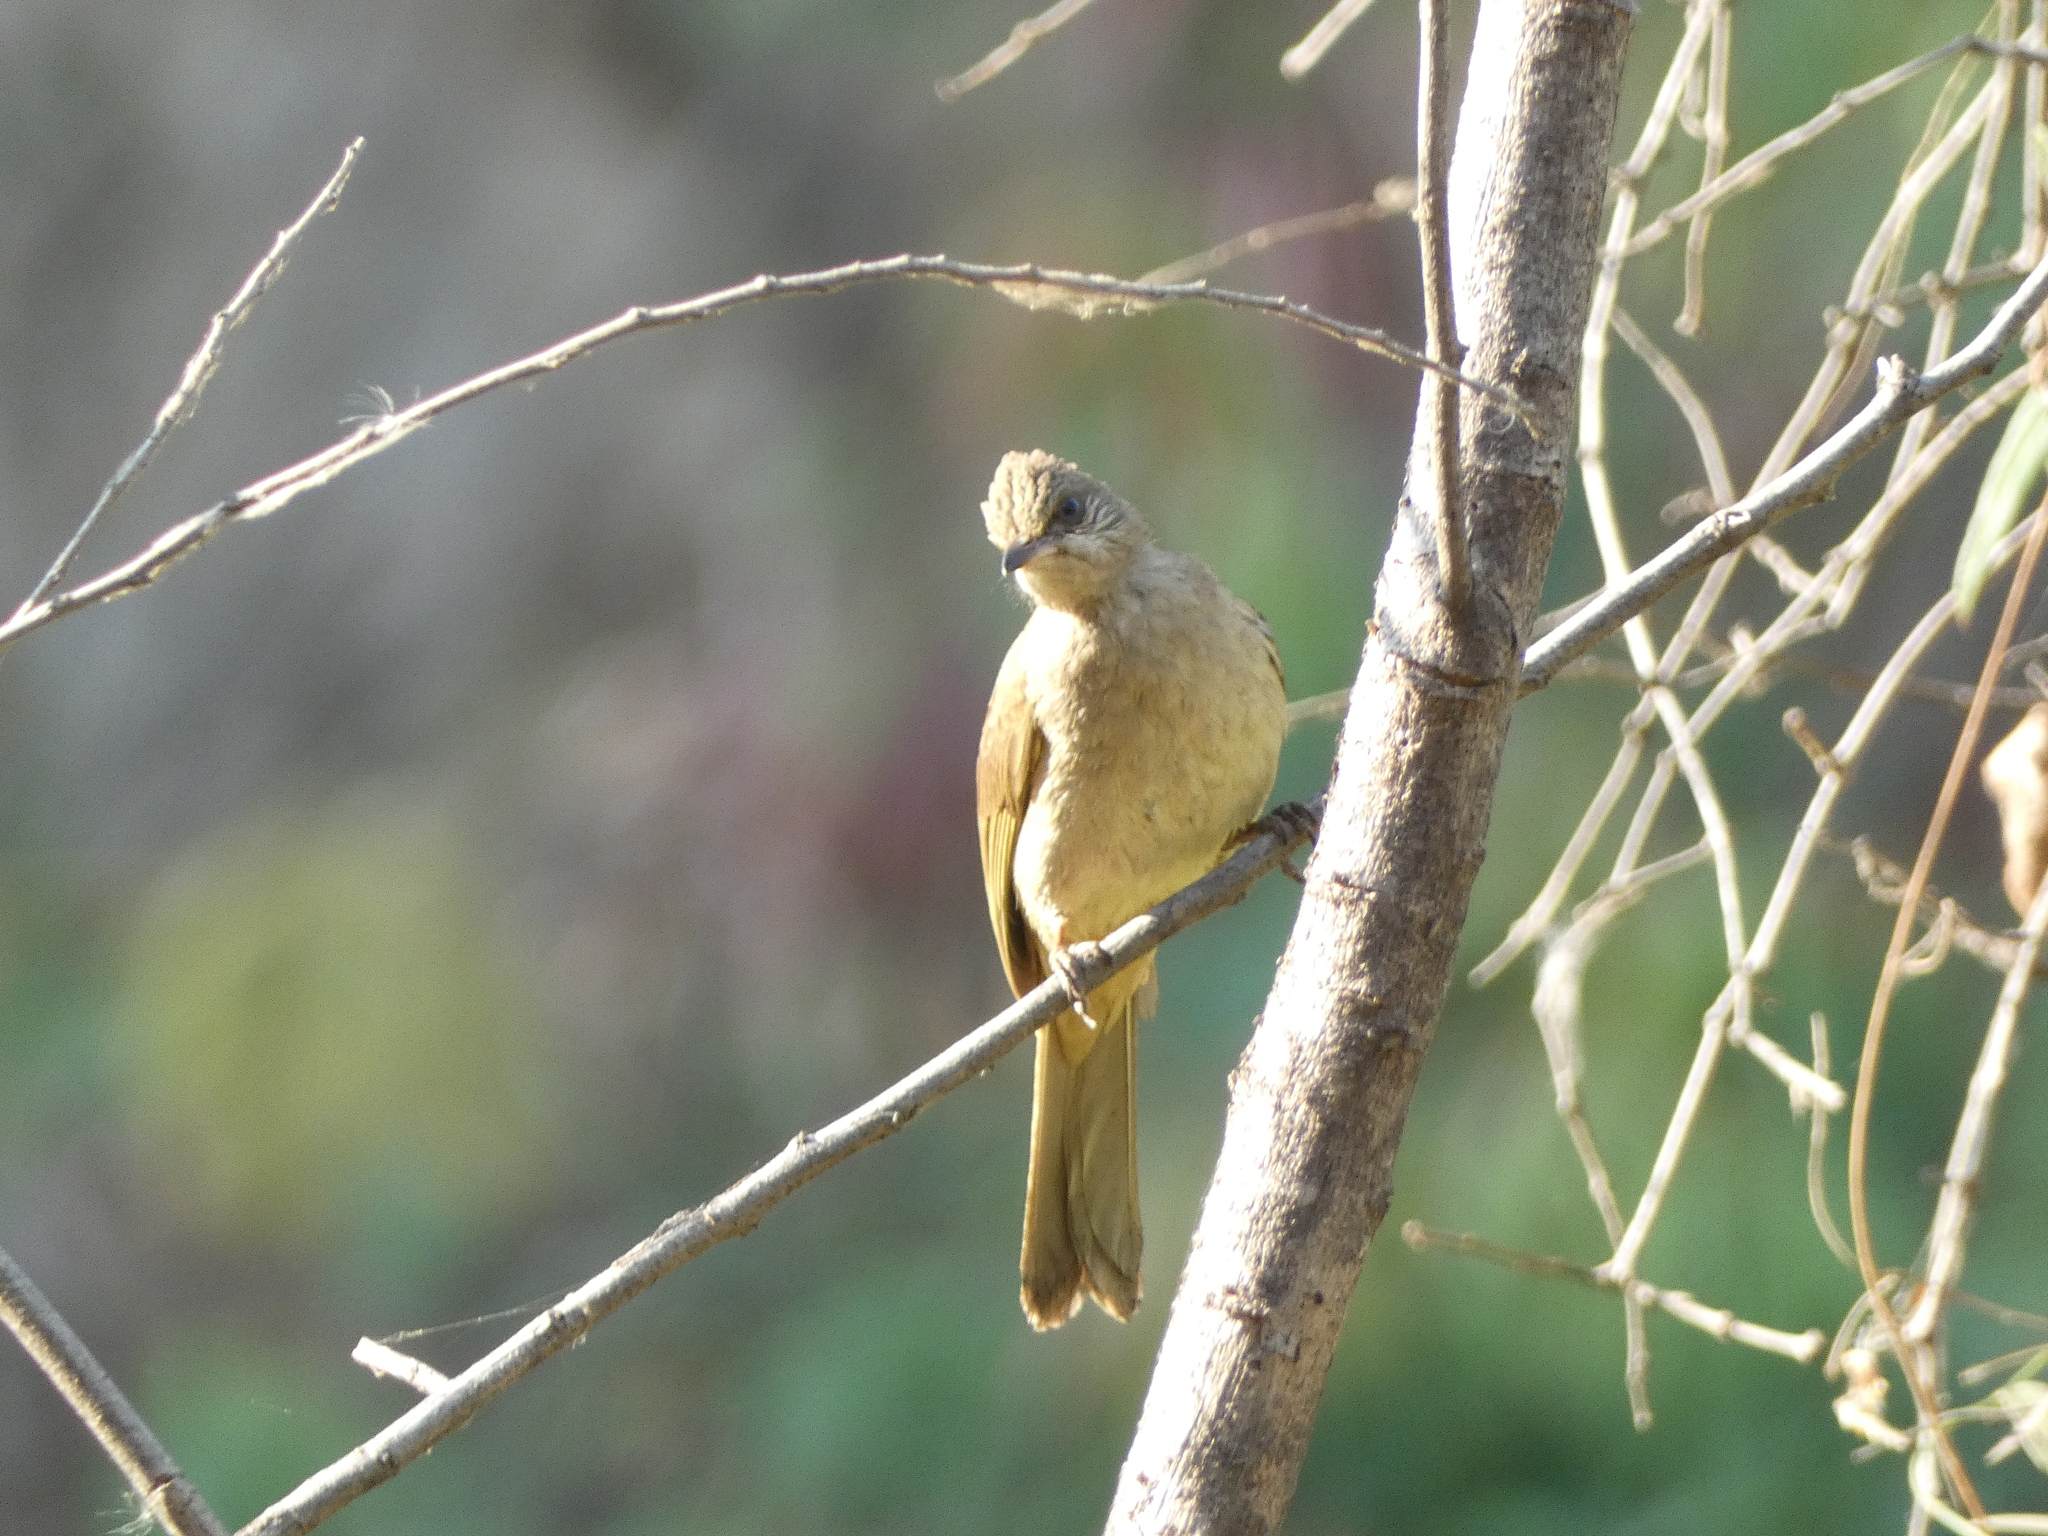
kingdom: Animalia
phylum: Chordata
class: Aves
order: Passeriformes
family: Pycnonotidae
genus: Pycnonotus
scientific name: Pycnonotus blanfordi
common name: Streak-eared bulbul
